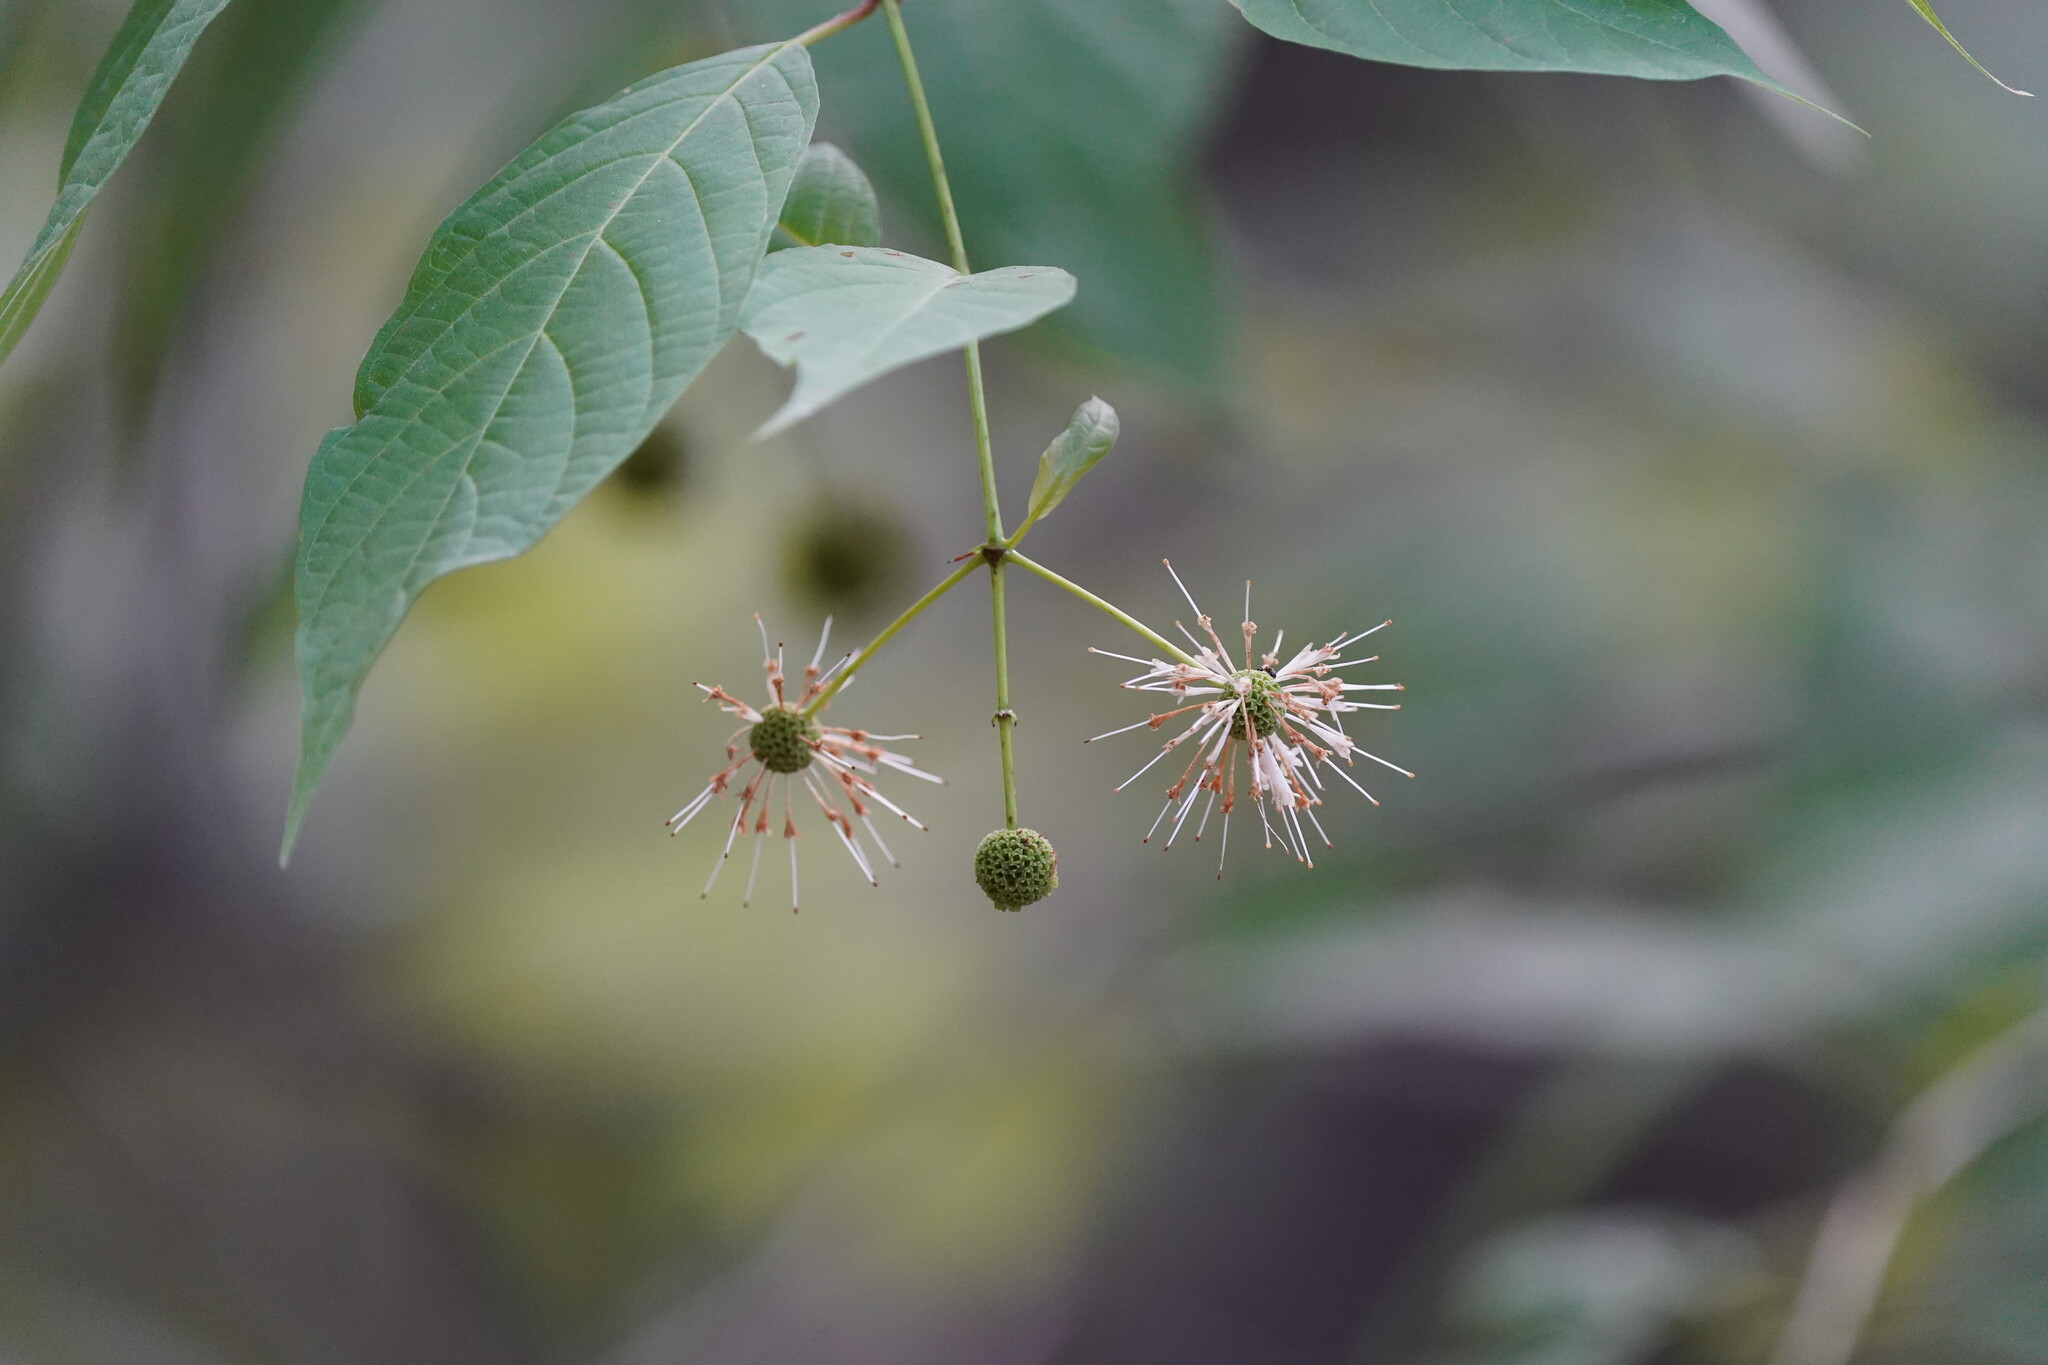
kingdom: Plantae
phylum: Tracheophyta
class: Magnoliopsida
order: Gentianales
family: Rubiaceae
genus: Cephalanthus
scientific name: Cephalanthus occidentalis
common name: Button-willow
